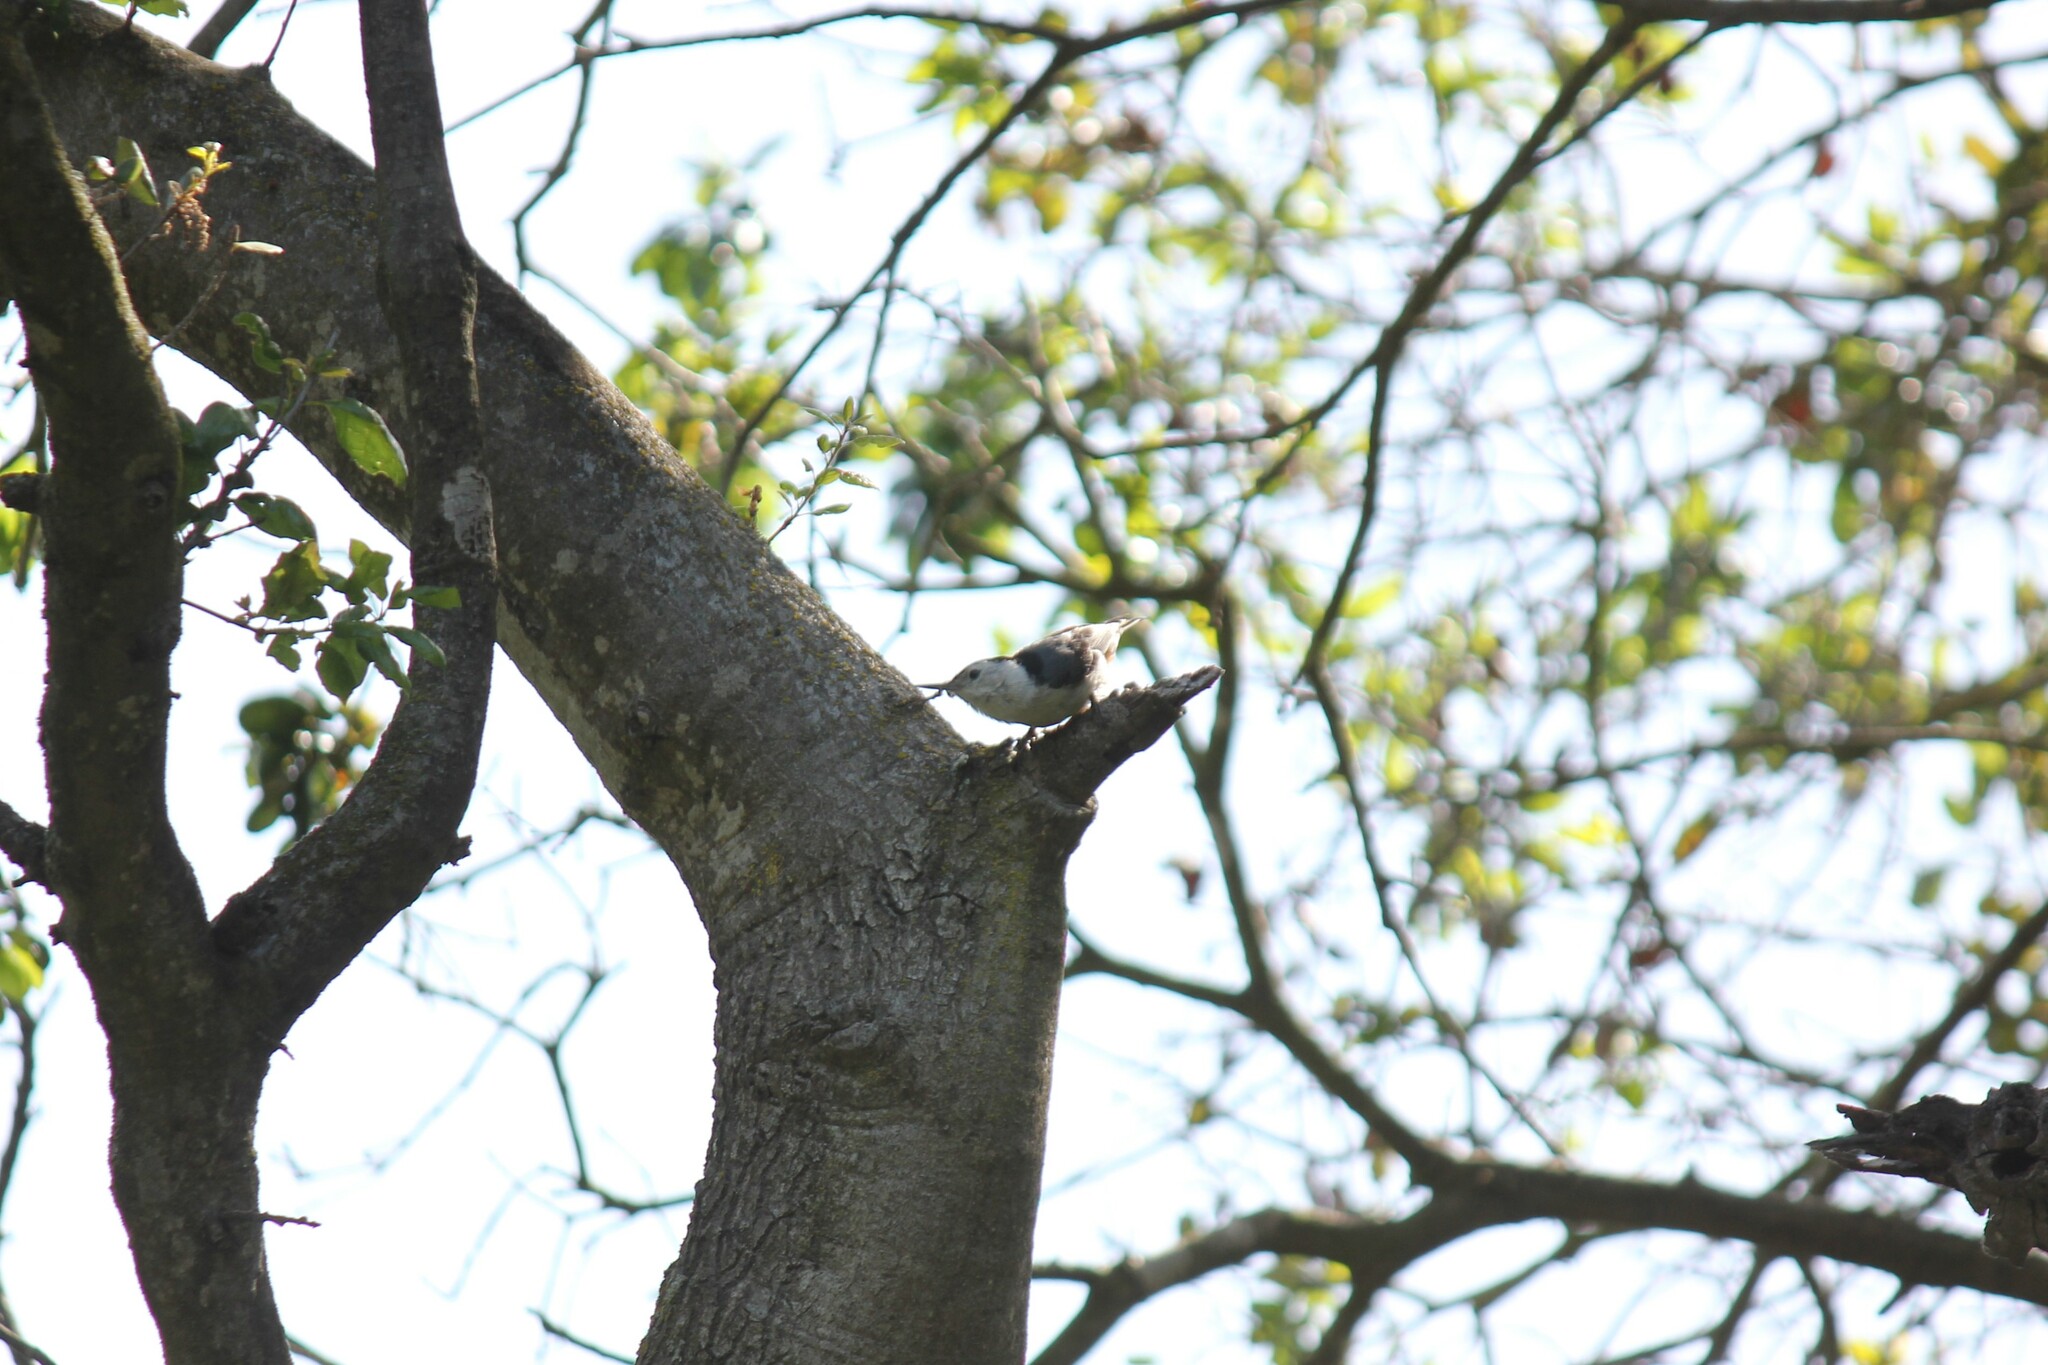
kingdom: Animalia
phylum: Chordata
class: Aves
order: Passeriformes
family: Sittidae
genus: Sitta
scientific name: Sitta carolinensis
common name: White-breasted nuthatch
